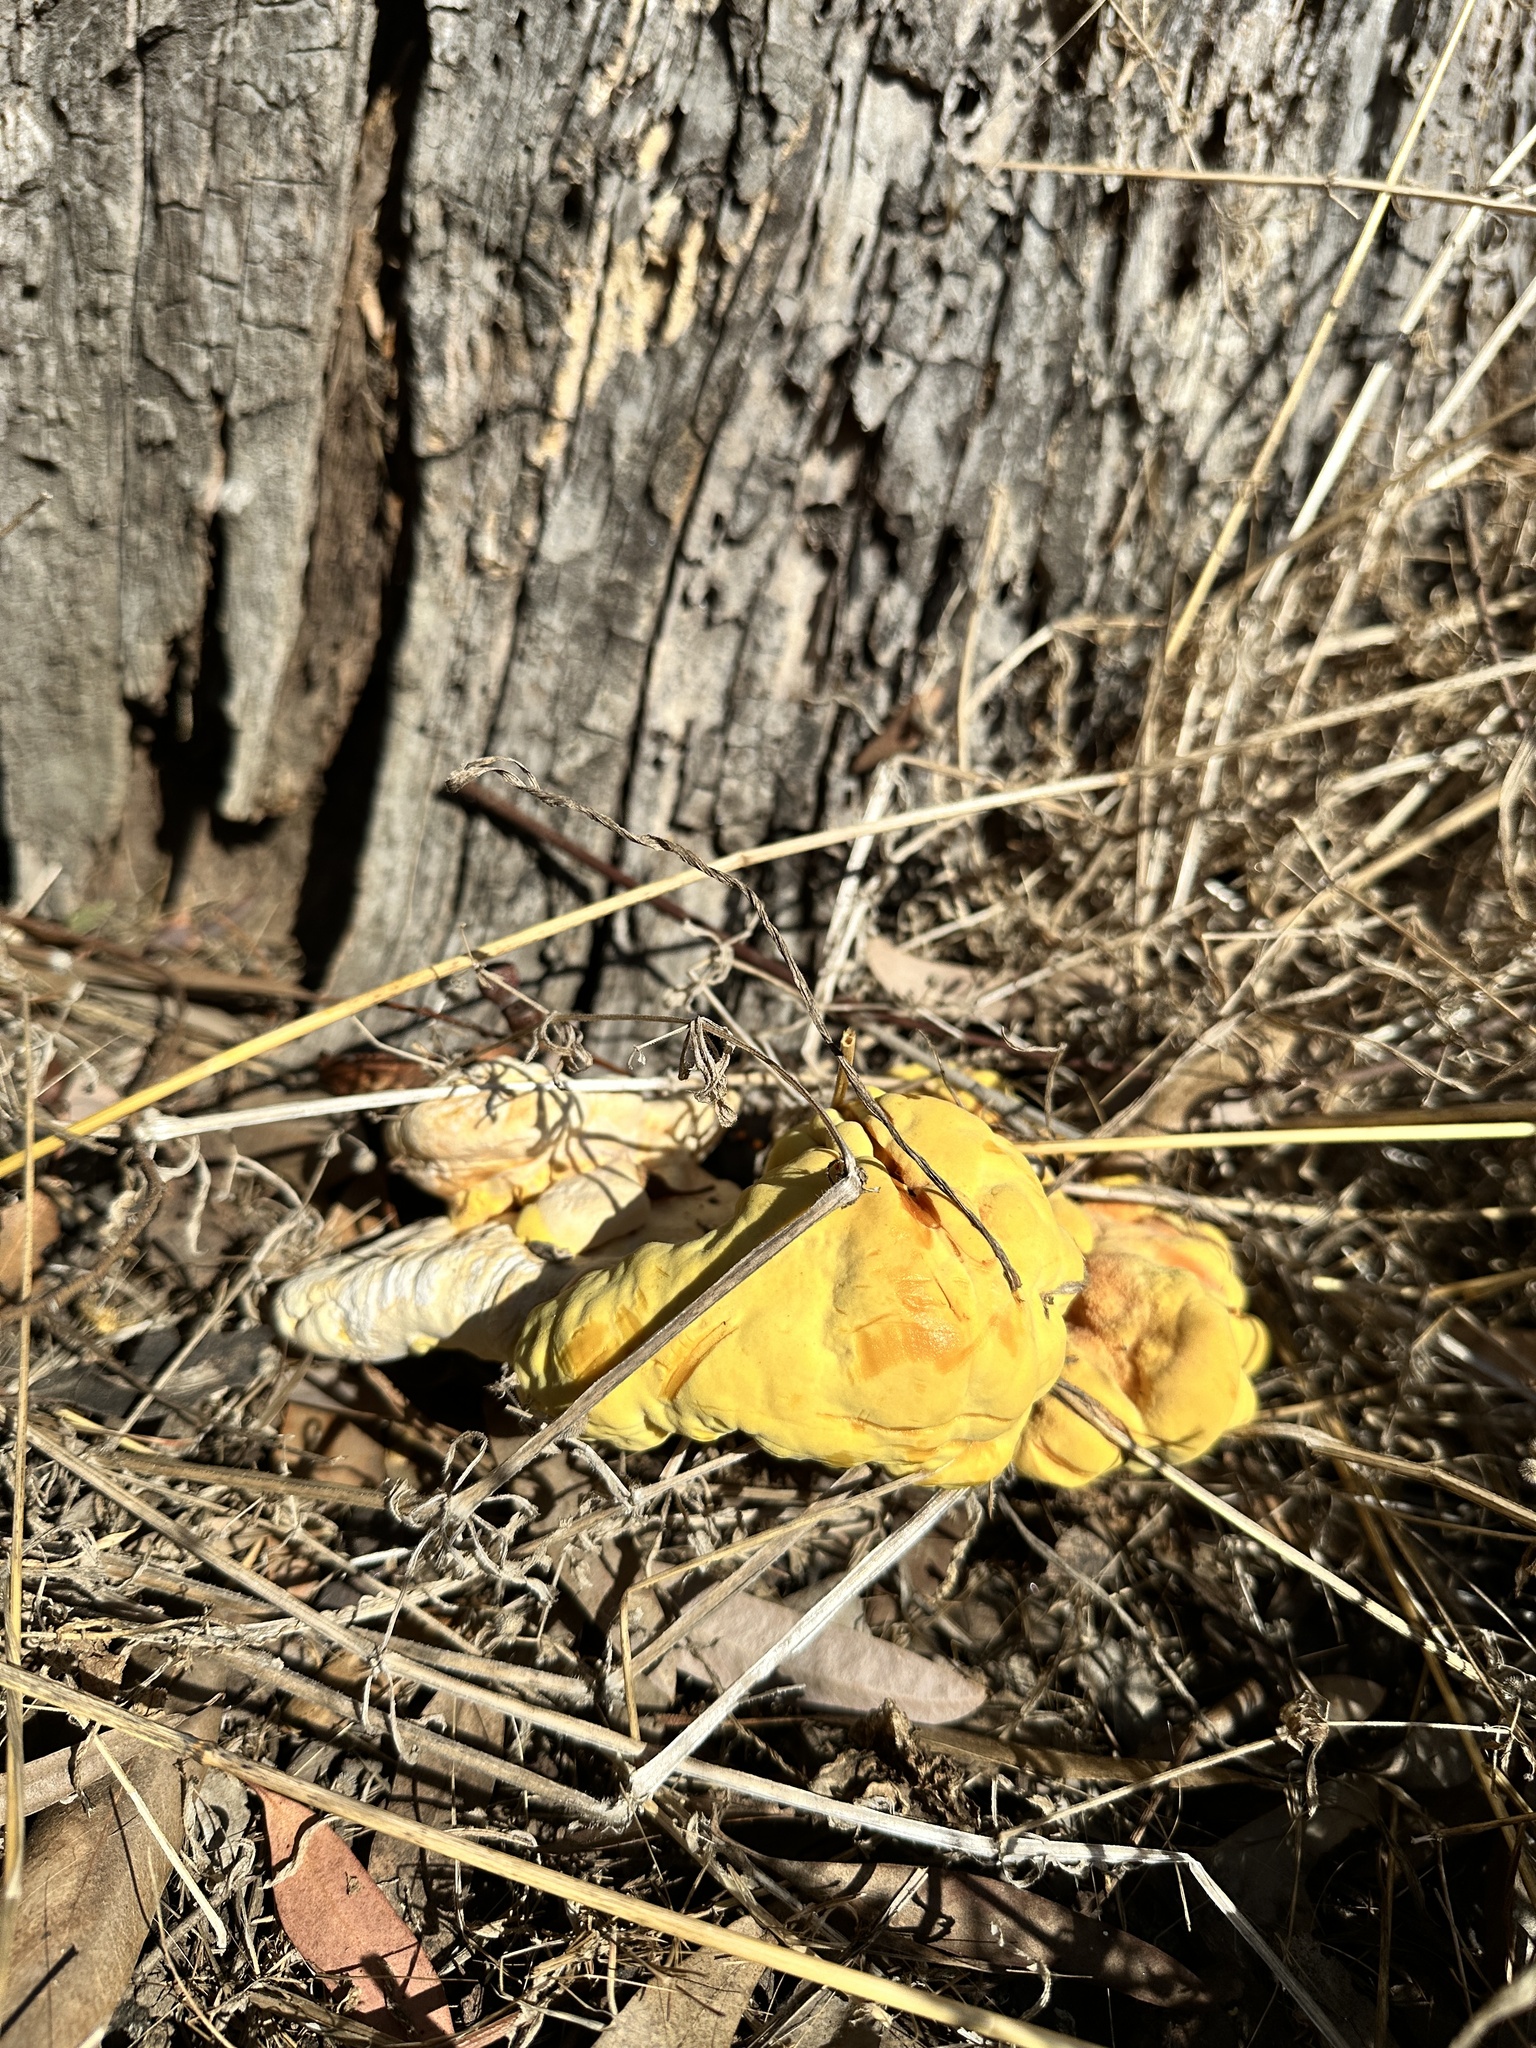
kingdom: Fungi
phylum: Basidiomycota
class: Agaricomycetes
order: Polyporales
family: Laetiporaceae
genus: Laetiporus
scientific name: Laetiporus gilbertsonii
